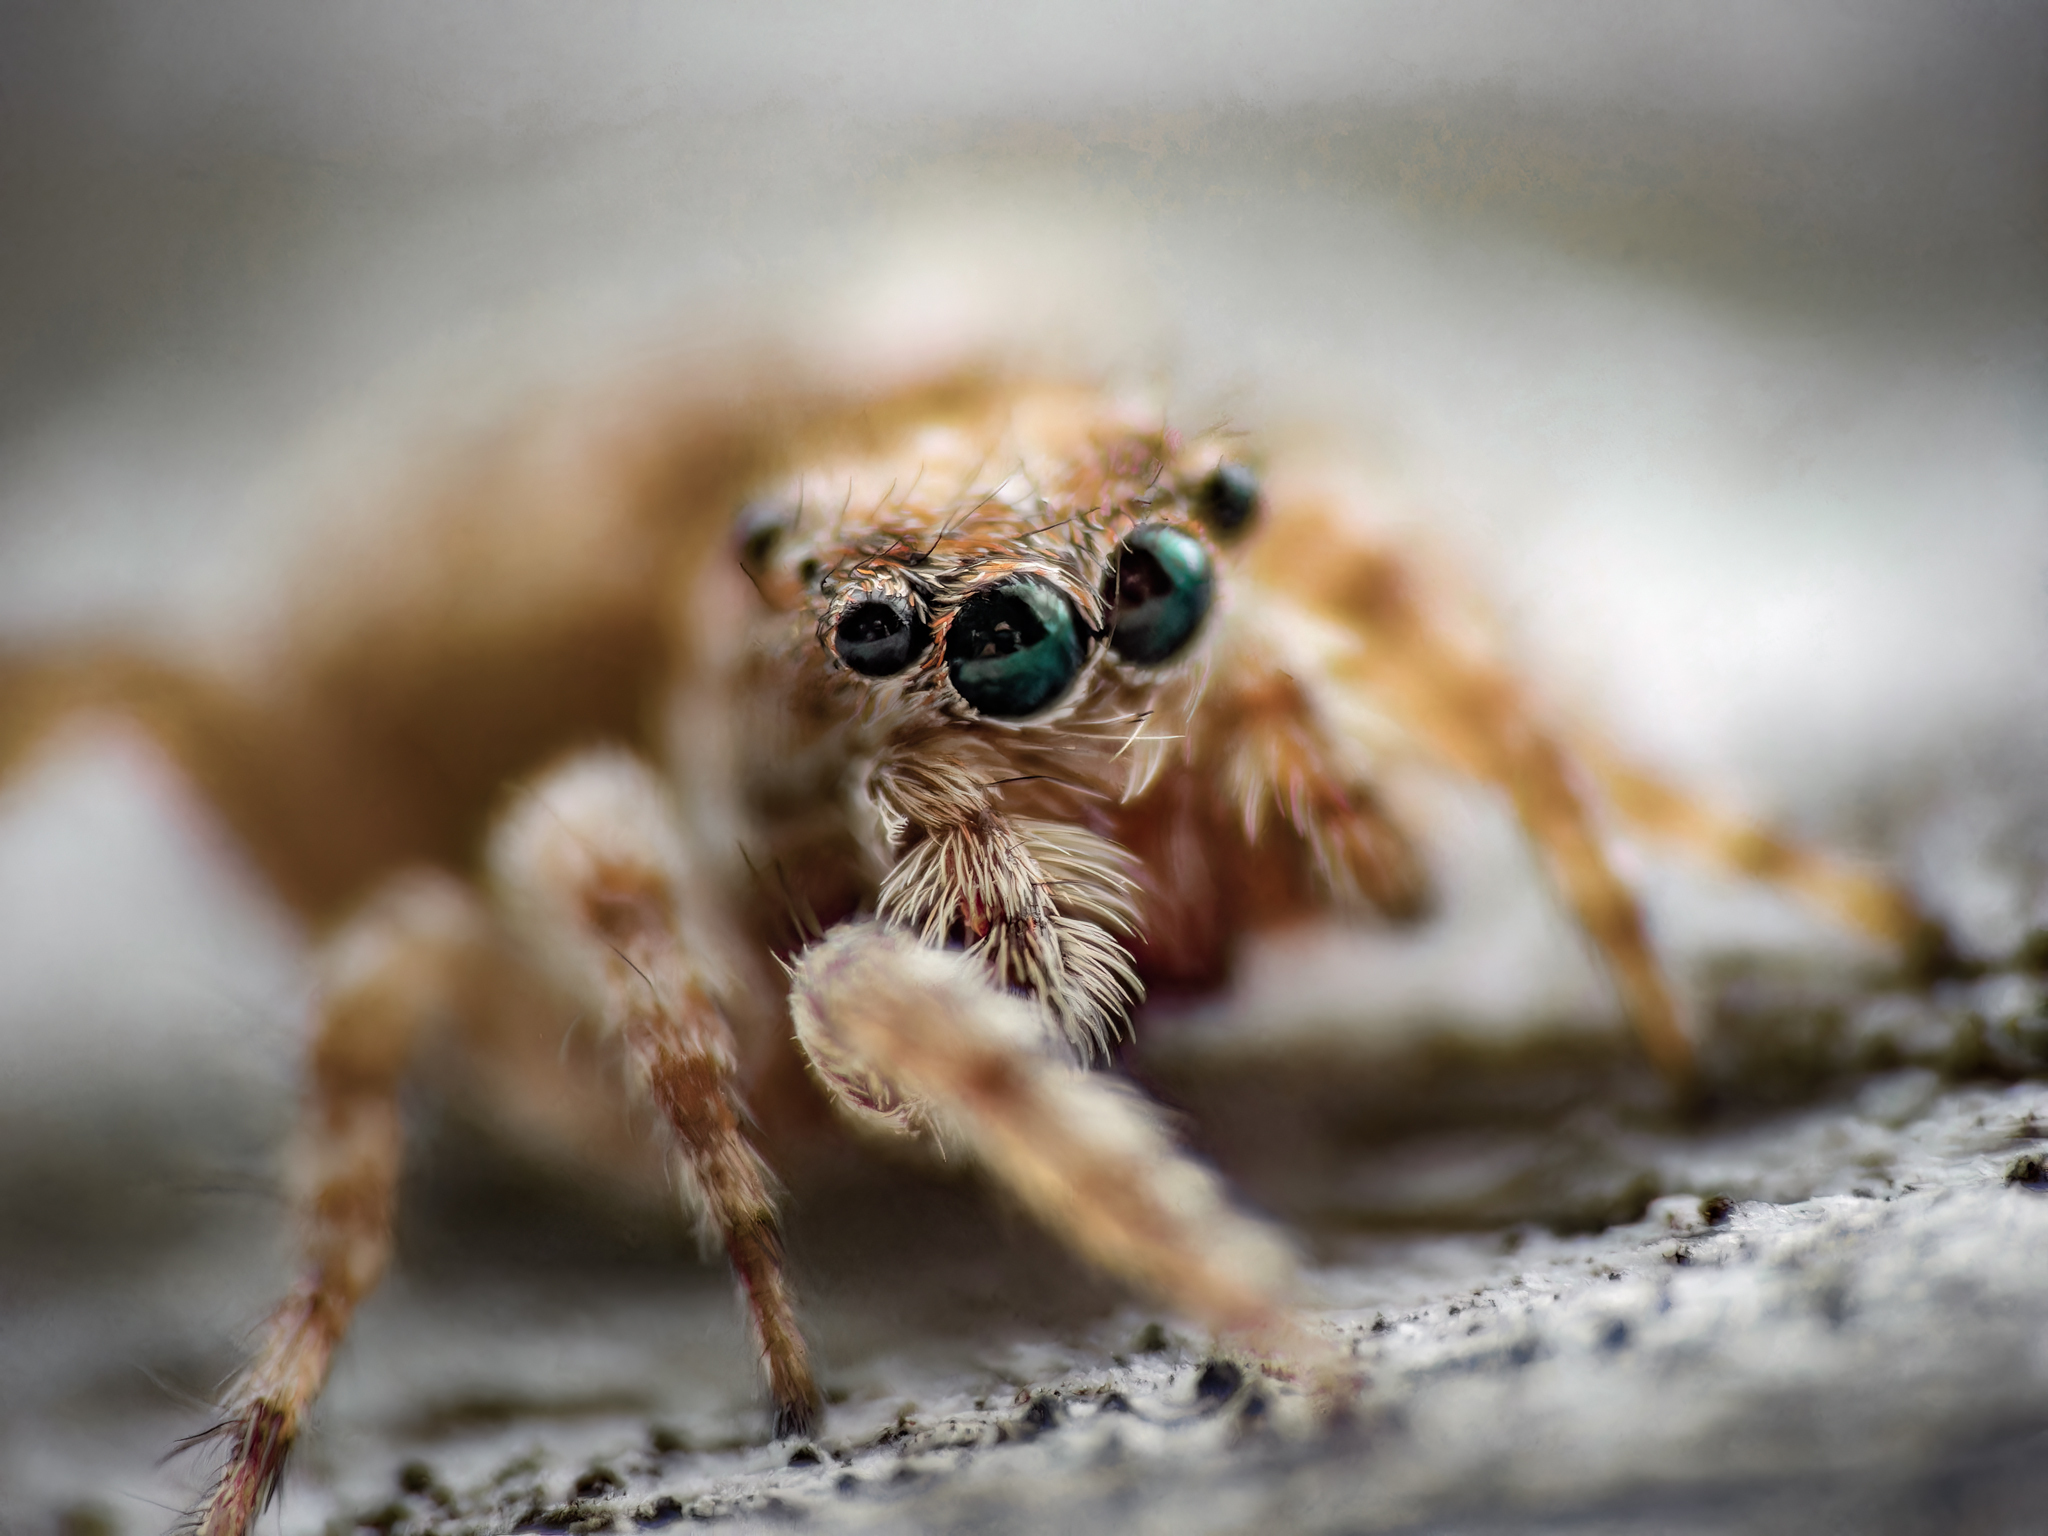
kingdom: Animalia
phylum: Arthropoda
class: Arachnida
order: Araneae
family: Salticidae
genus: Attulus
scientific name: Attulus fasciger
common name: Asiatic wall jumping spider
